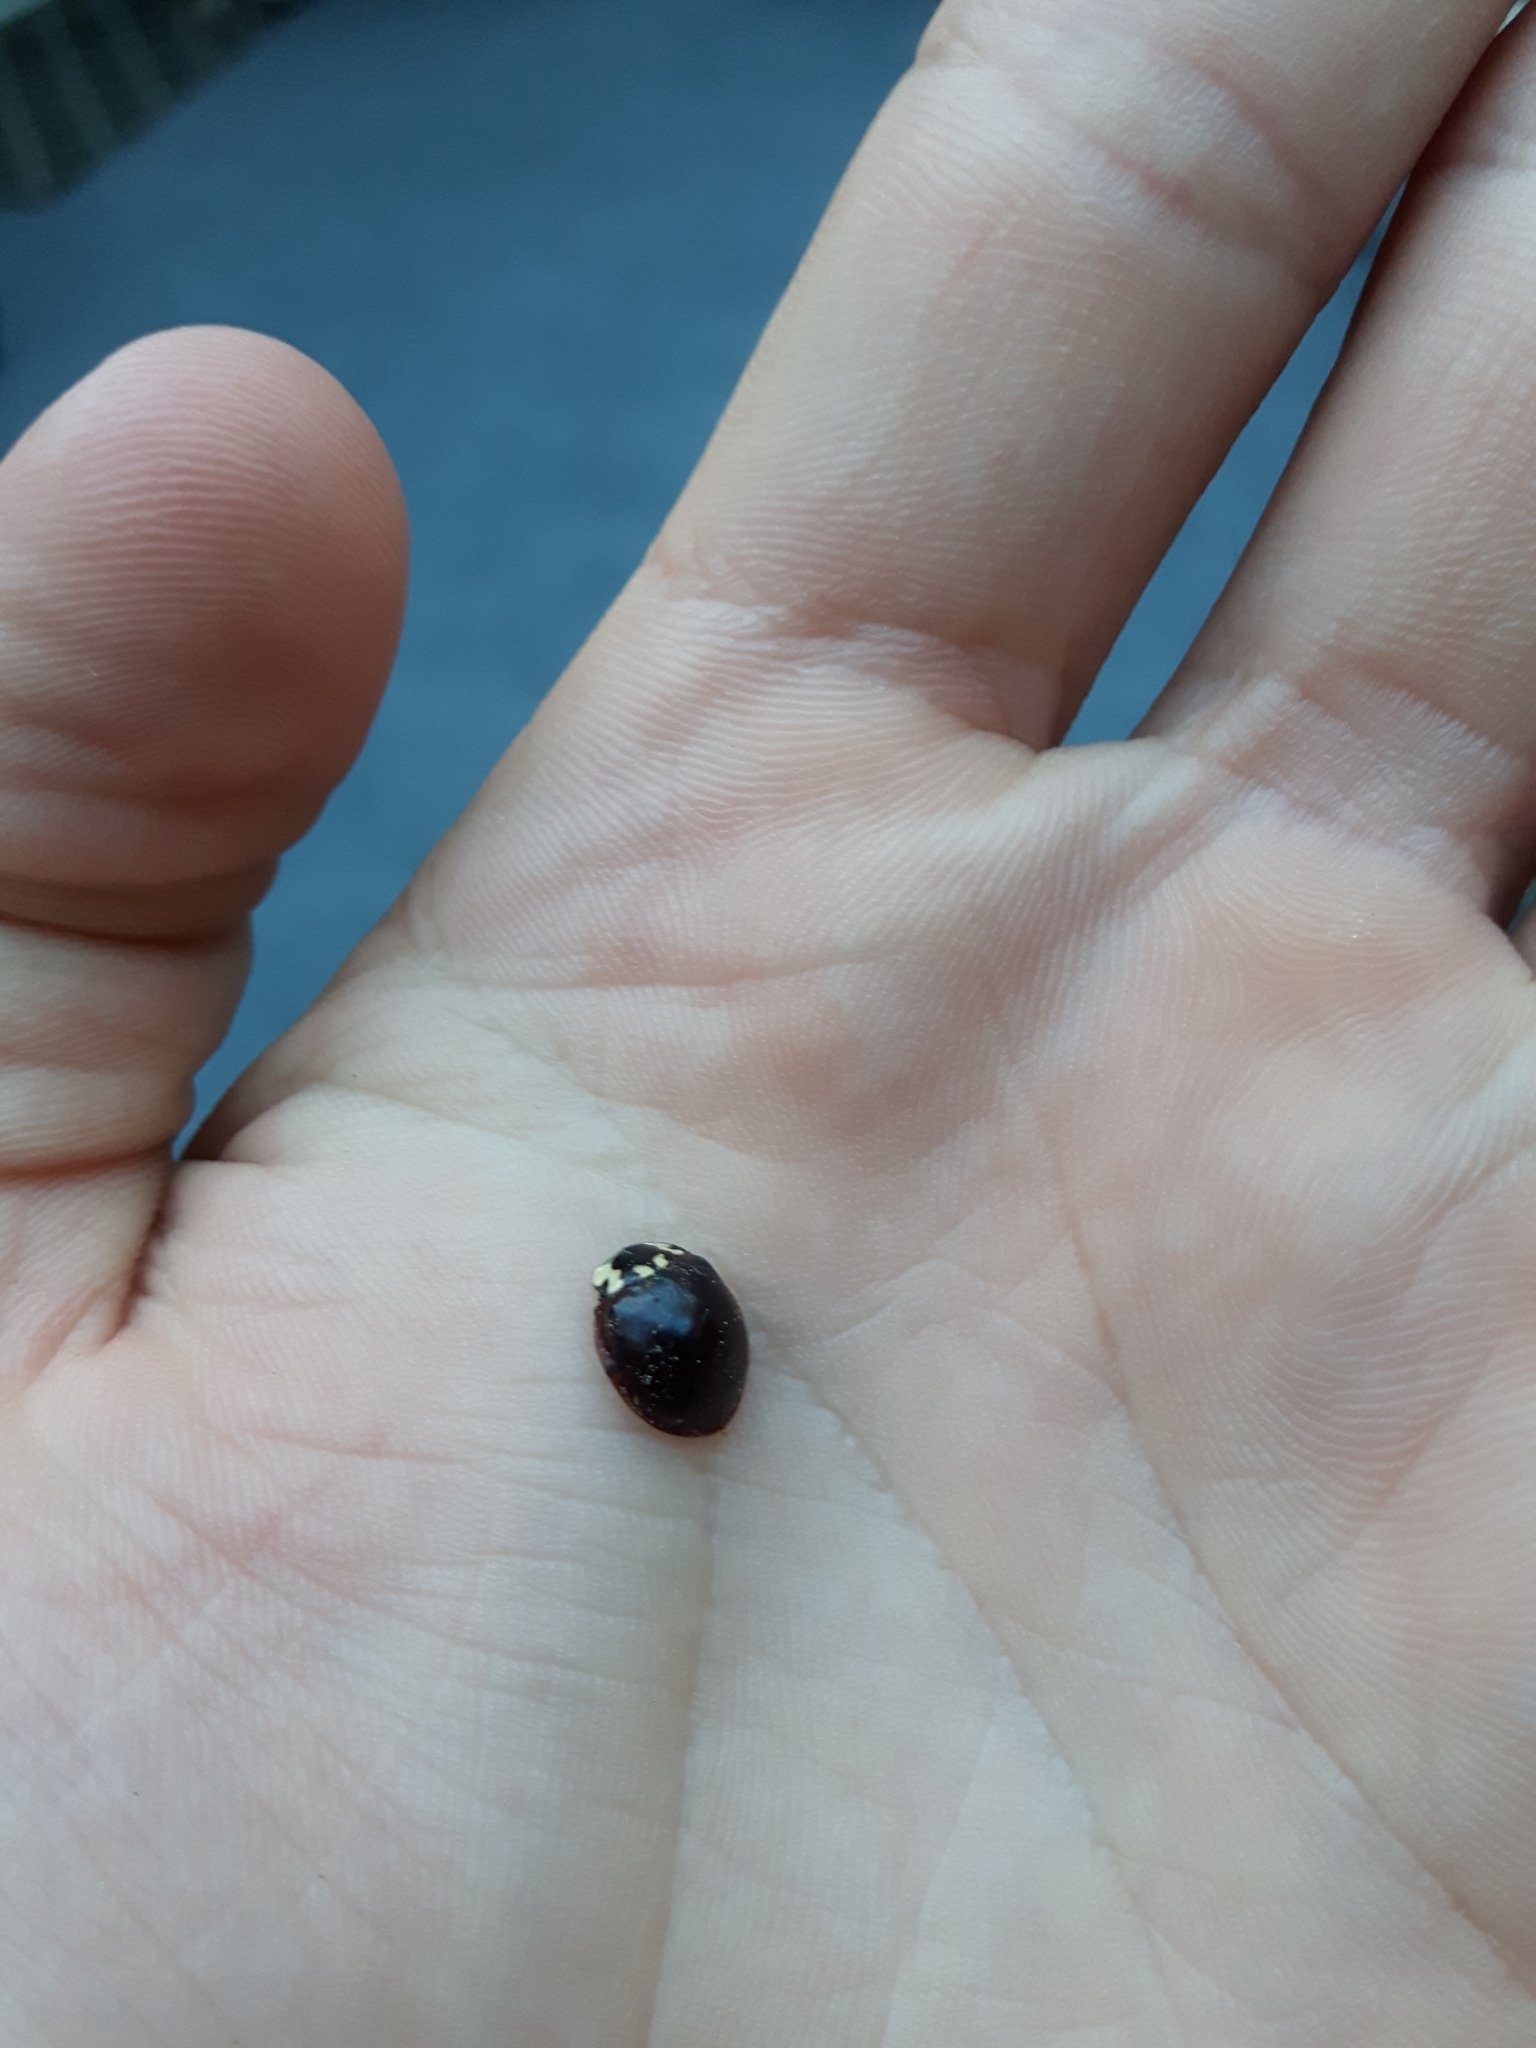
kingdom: Animalia
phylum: Arthropoda
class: Insecta
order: Coleoptera
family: Coccinellidae
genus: Anatis
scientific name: Anatis labiculata
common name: Fifteen-spotted lady beetle
